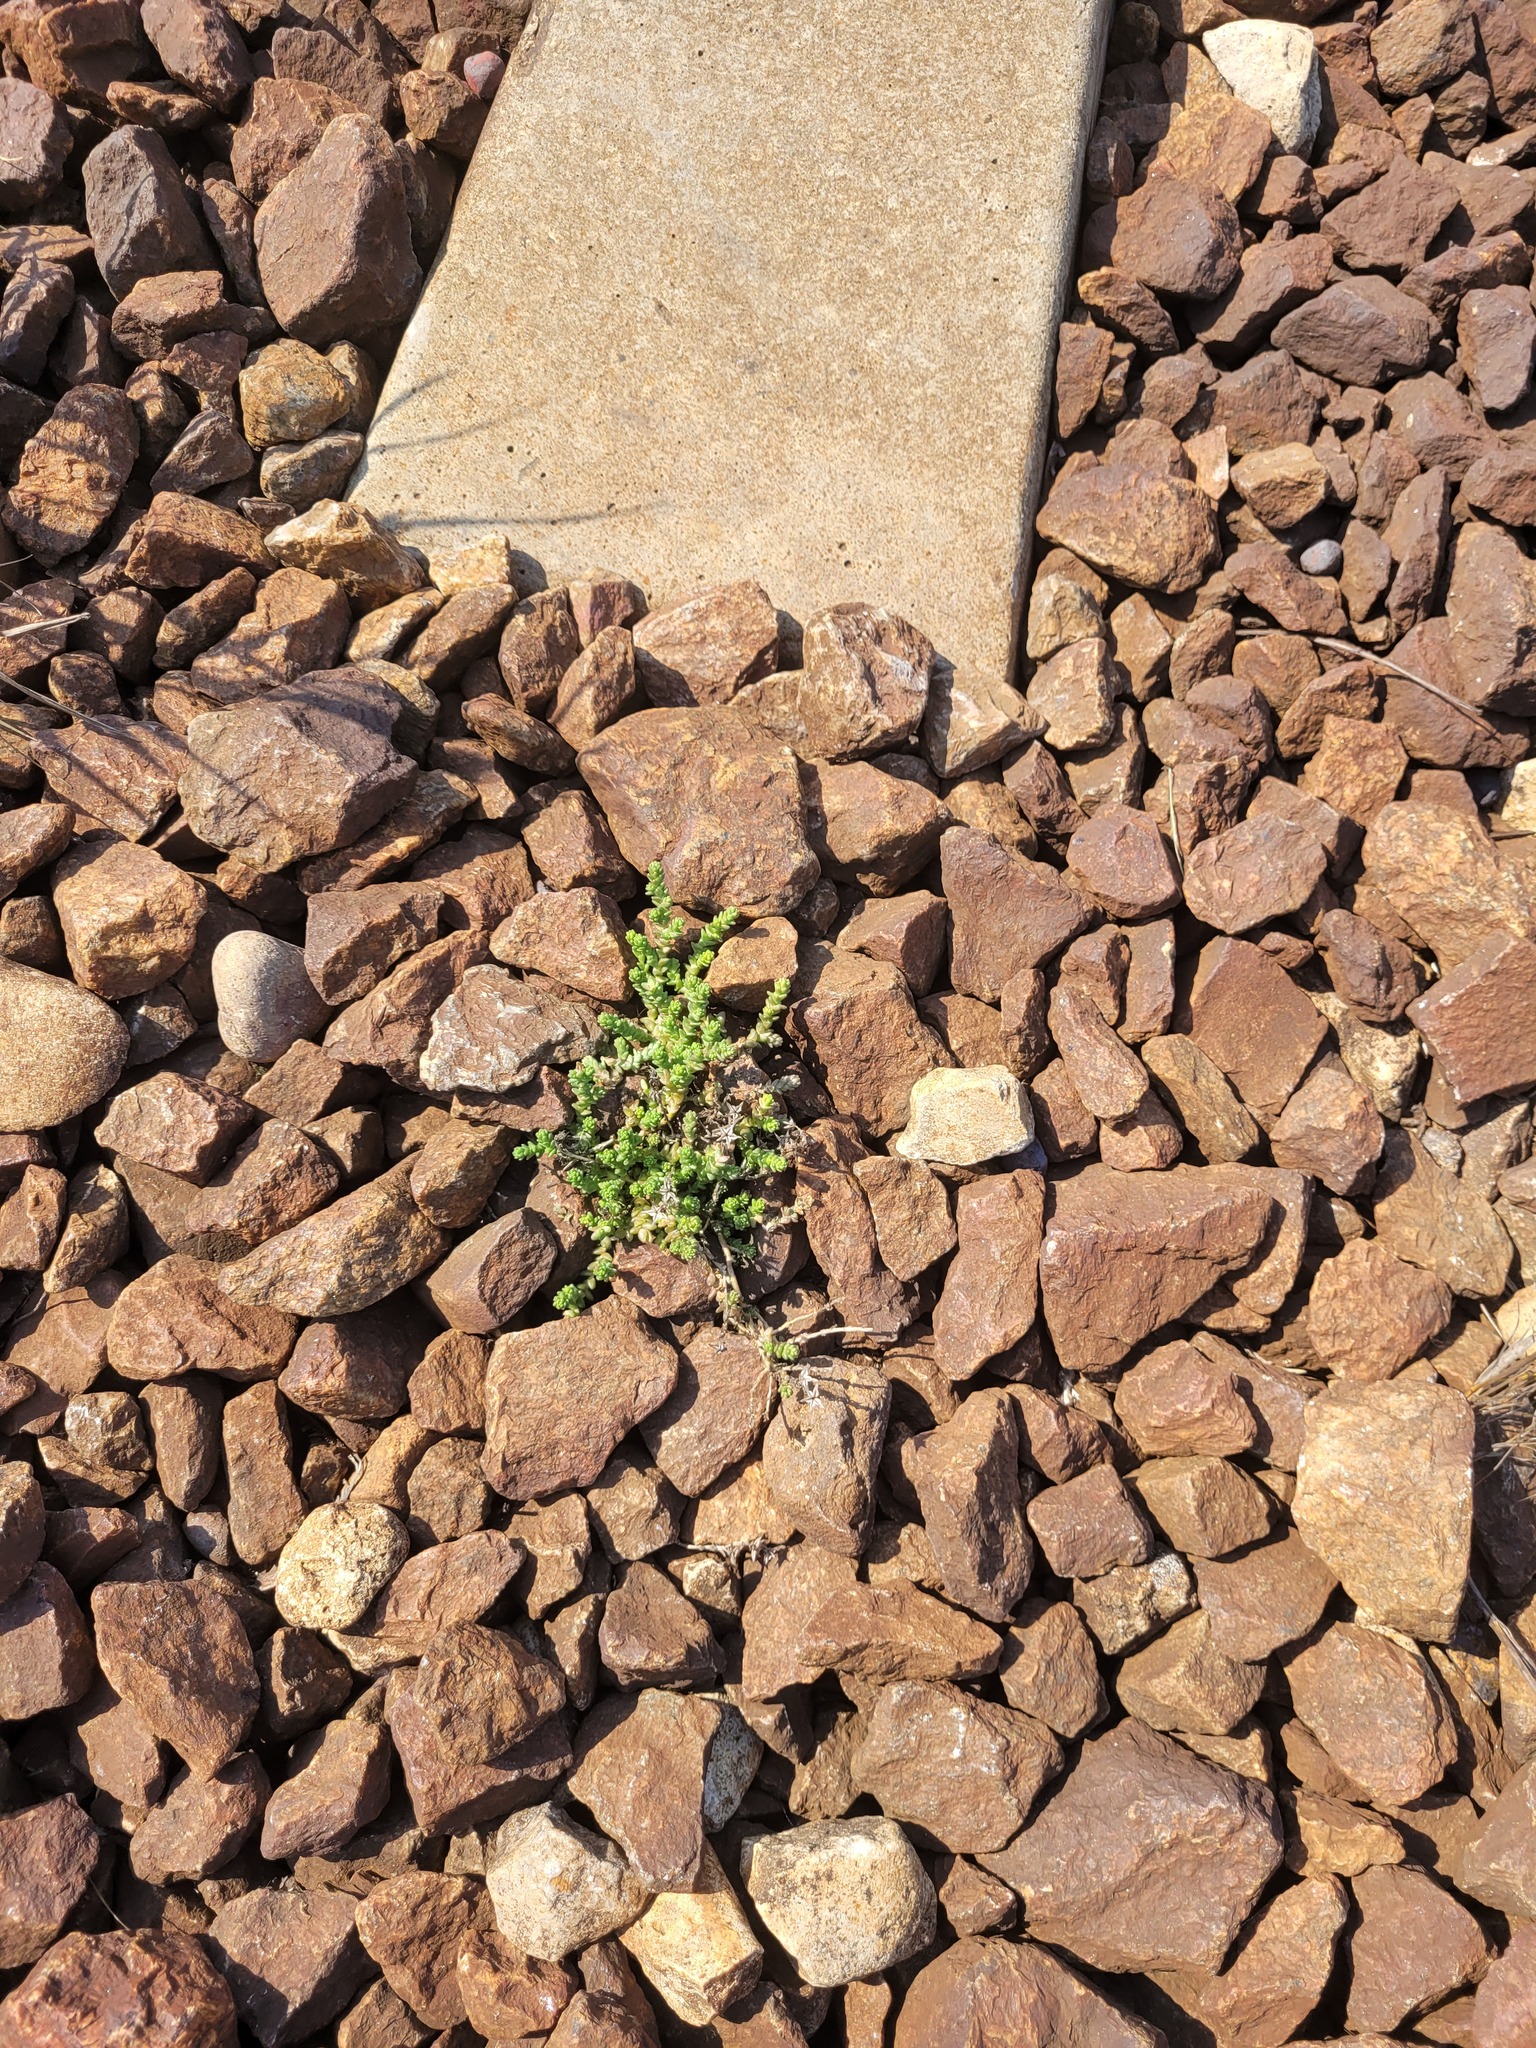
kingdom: Plantae
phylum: Tracheophyta
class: Magnoliopsida
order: Saxifragales
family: Crassulaceae
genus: Sedum
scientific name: Sedum acre
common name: Biting stonecrop
